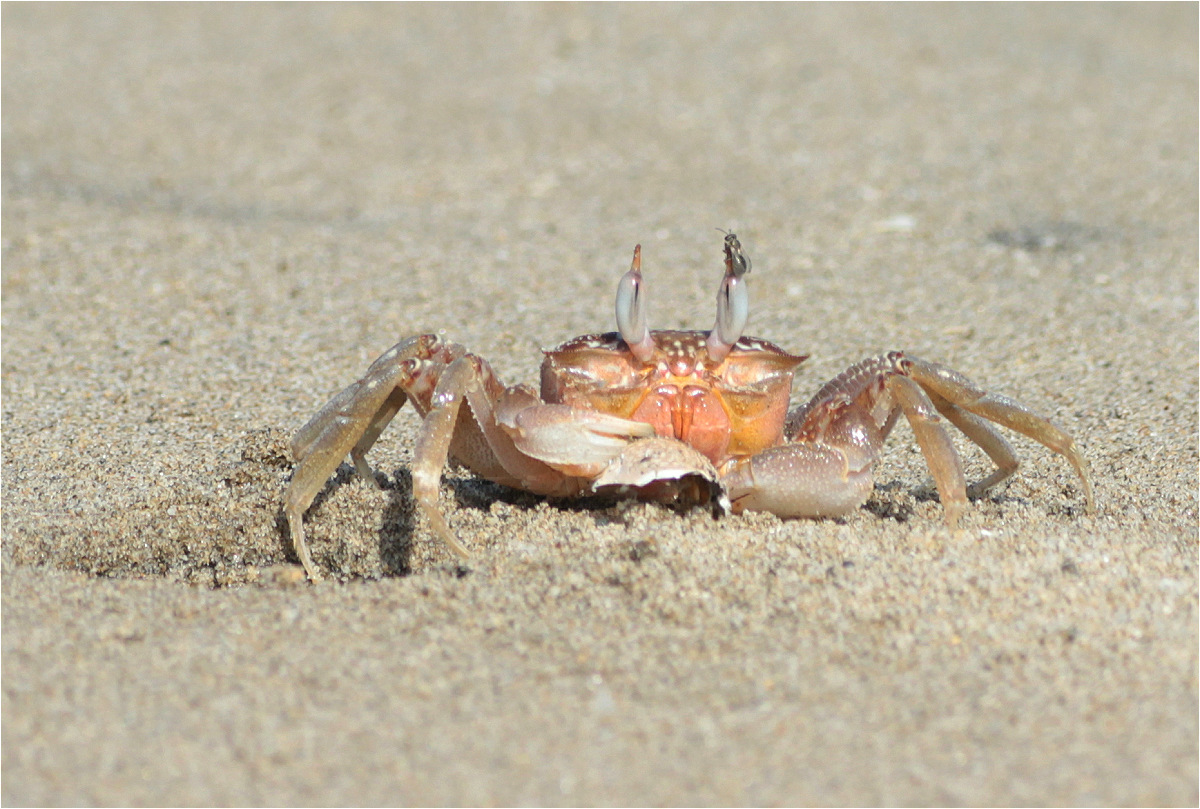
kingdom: Animalia
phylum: Arthropoda
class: Malacostraca
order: Decapoda
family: Ocypodidae
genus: Ocypode
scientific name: Ocypode gaudichaudii
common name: Pacific ghost crab
